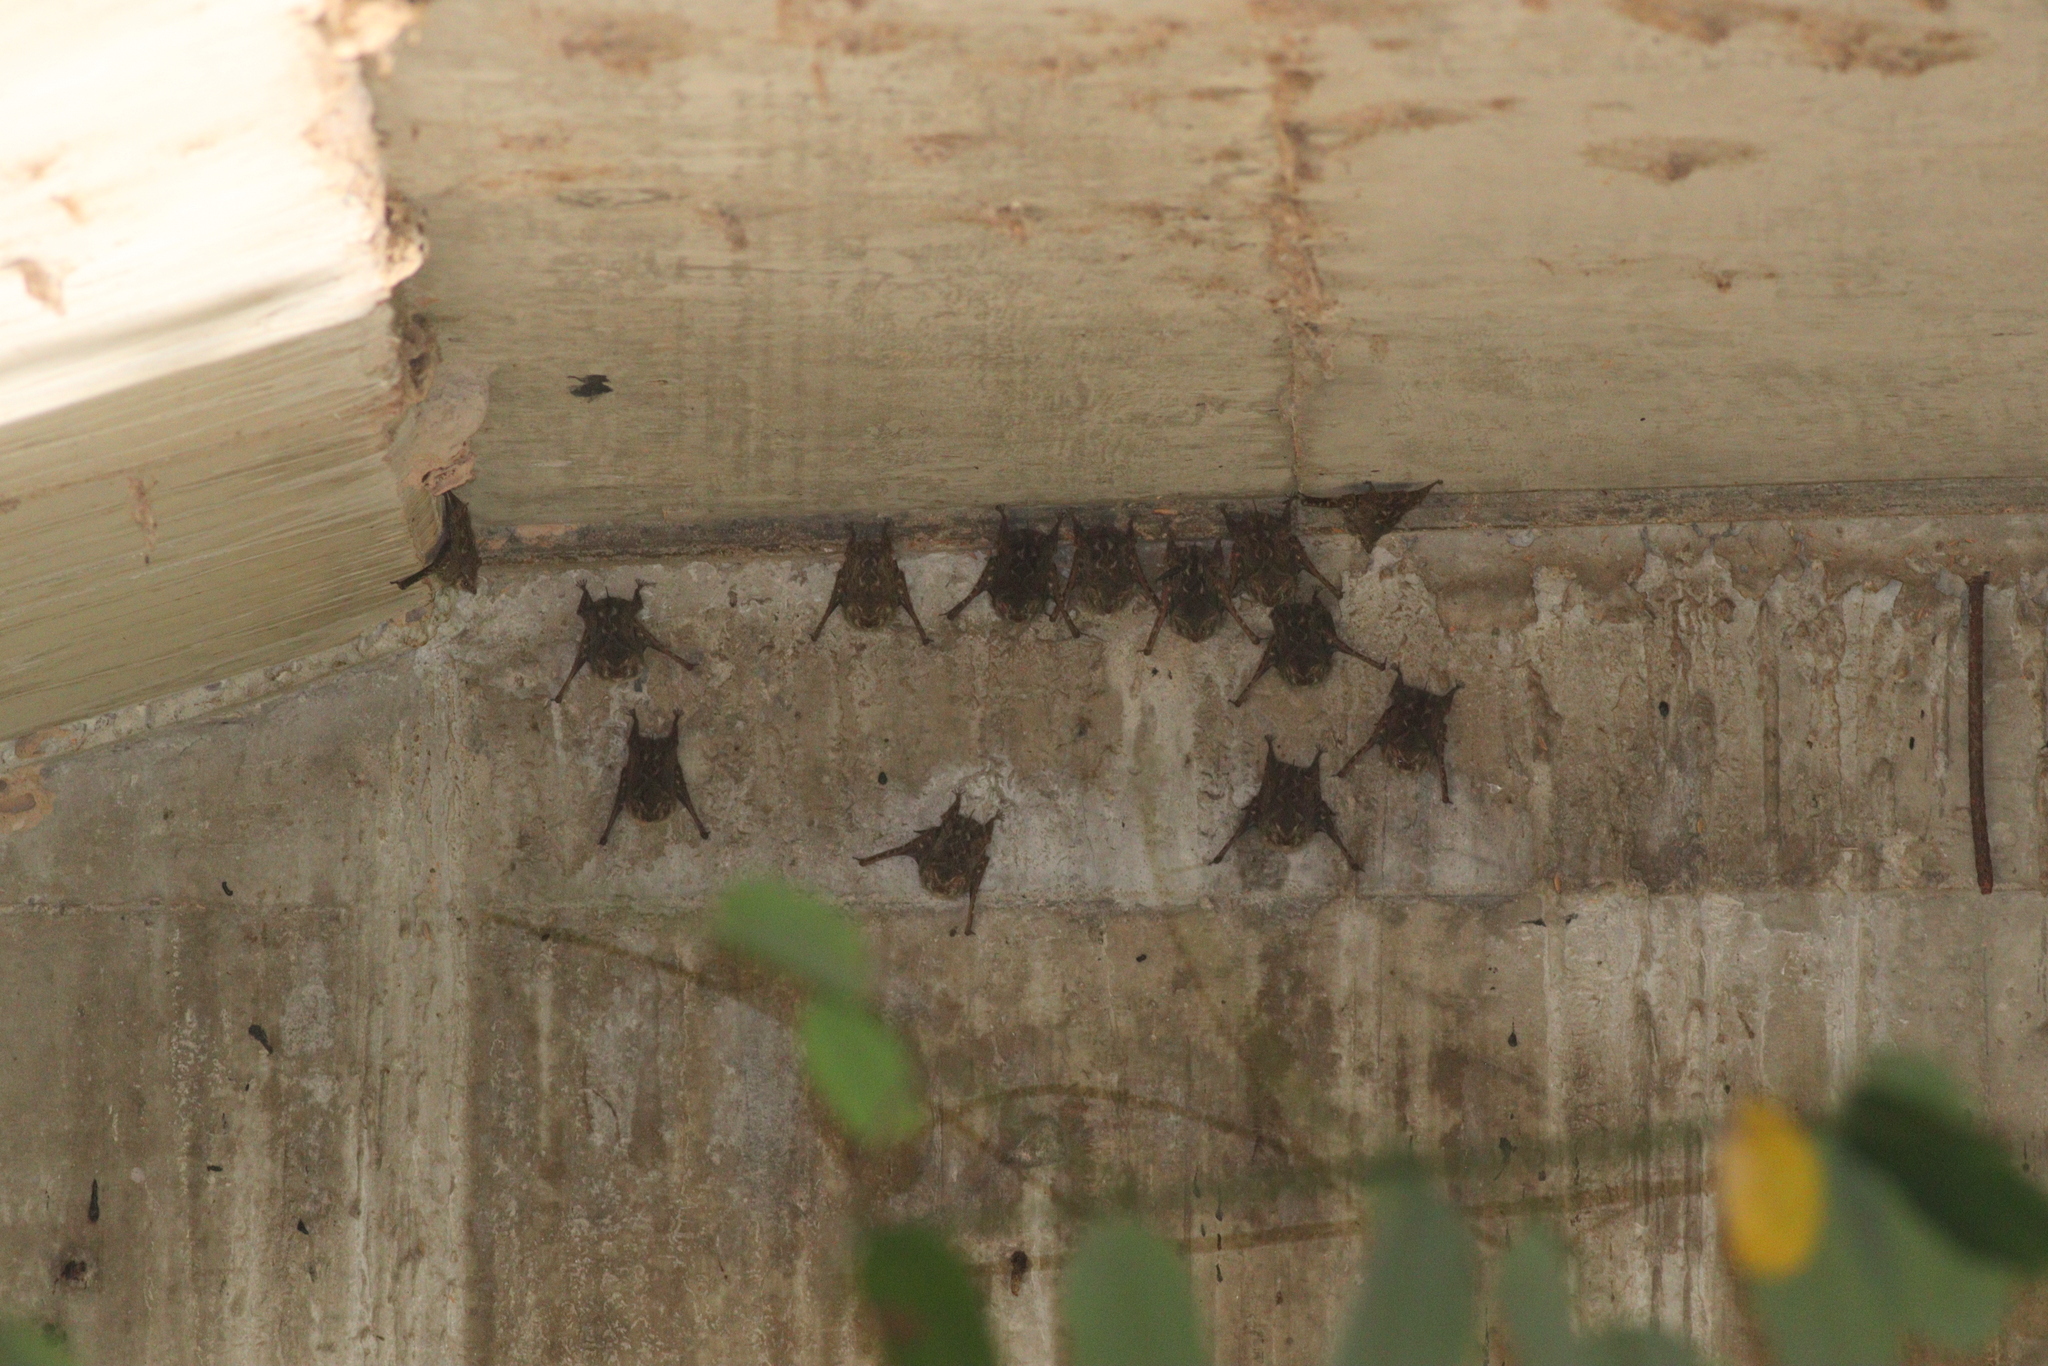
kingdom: Animalia
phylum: Chordata
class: Mammalia
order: Chiroptera
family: Emballonuridae
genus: Rhynchonycteris
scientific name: Rhynchonycteris naso
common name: Proboscis bat
